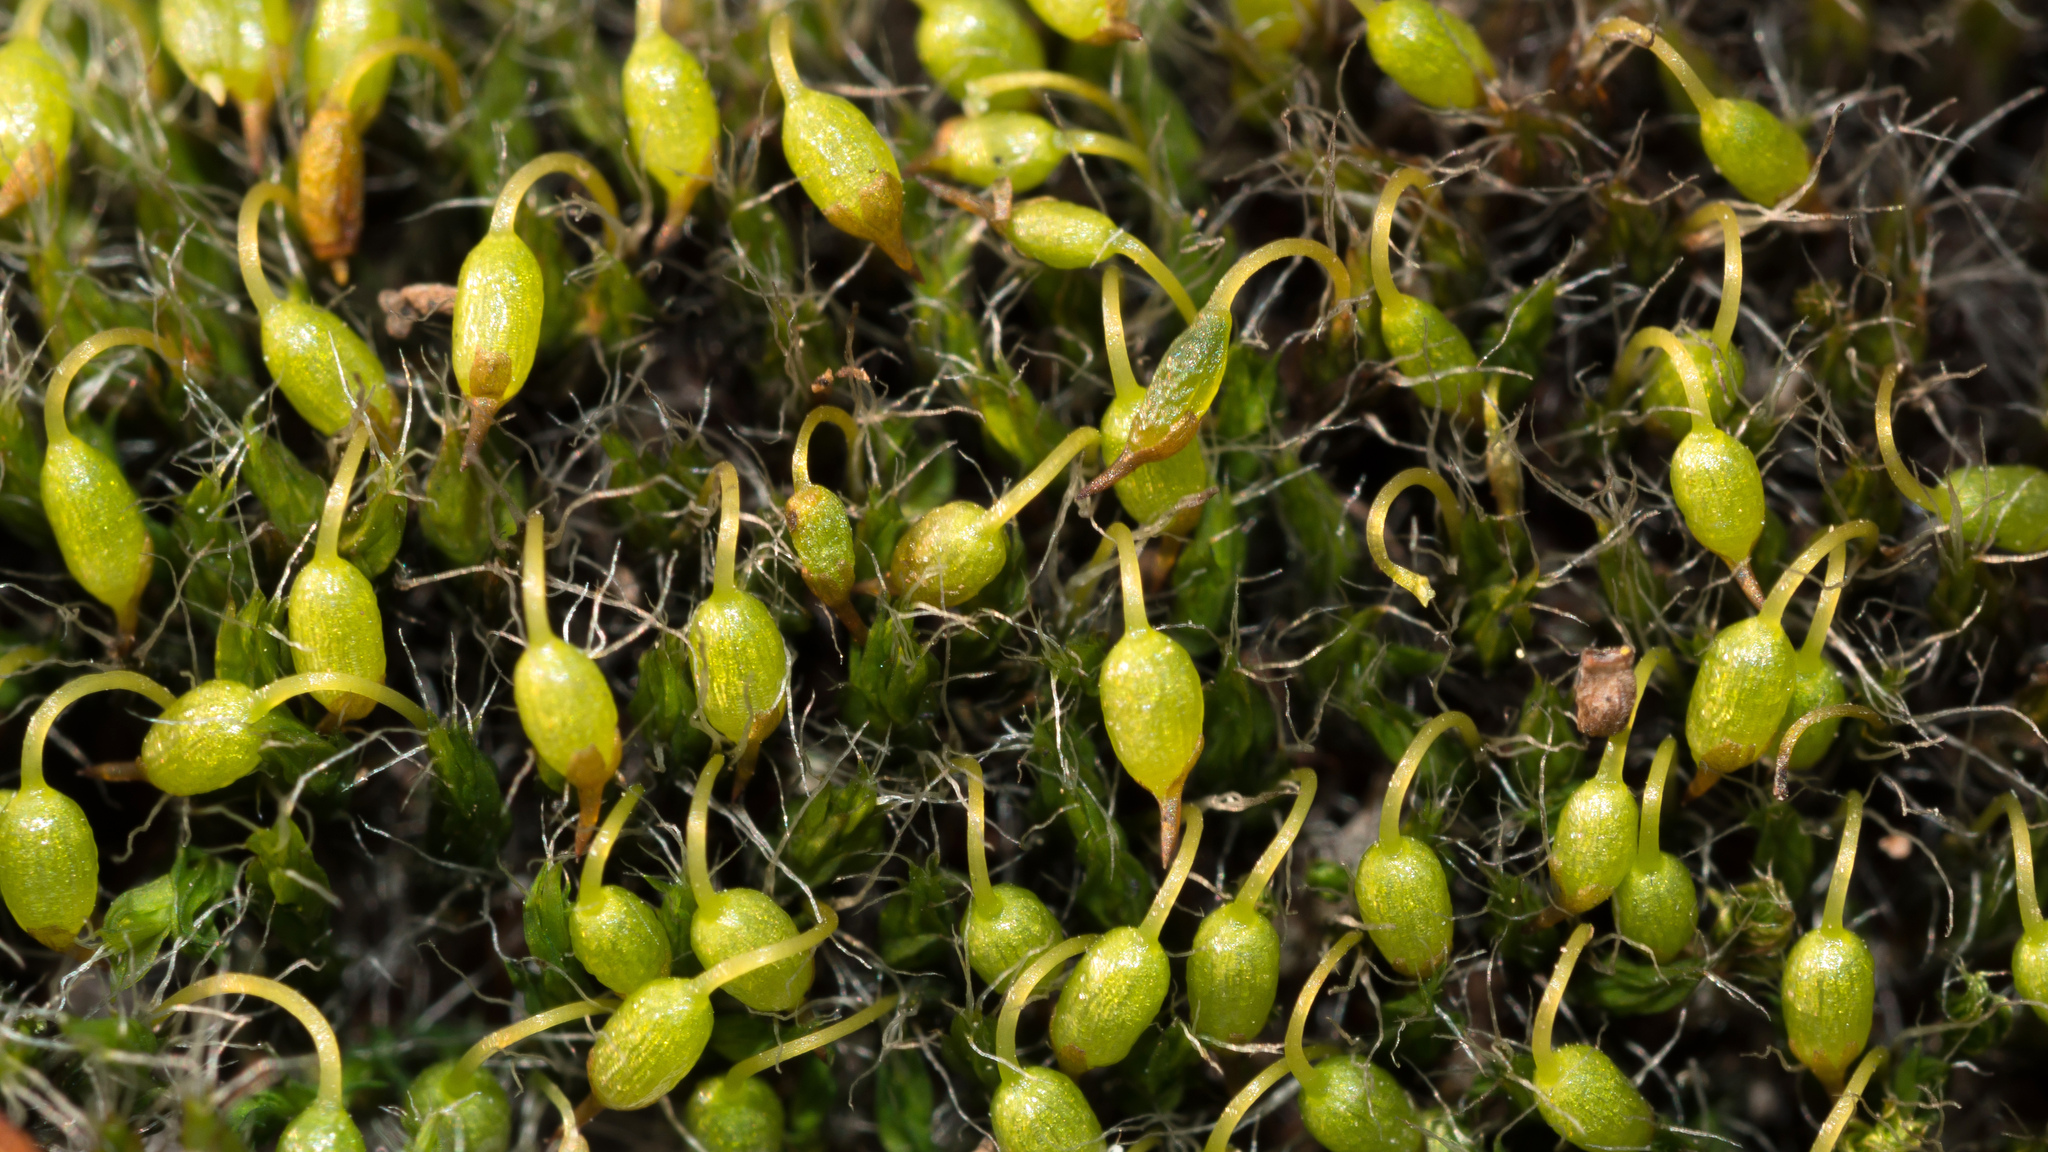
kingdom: Plantae
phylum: Bryophyta
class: Bryopsida
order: Grimmiales
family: Grimmiaceae
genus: Grimmia
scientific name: Grimmia pulvinata
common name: Grey-cushioned grimmia
